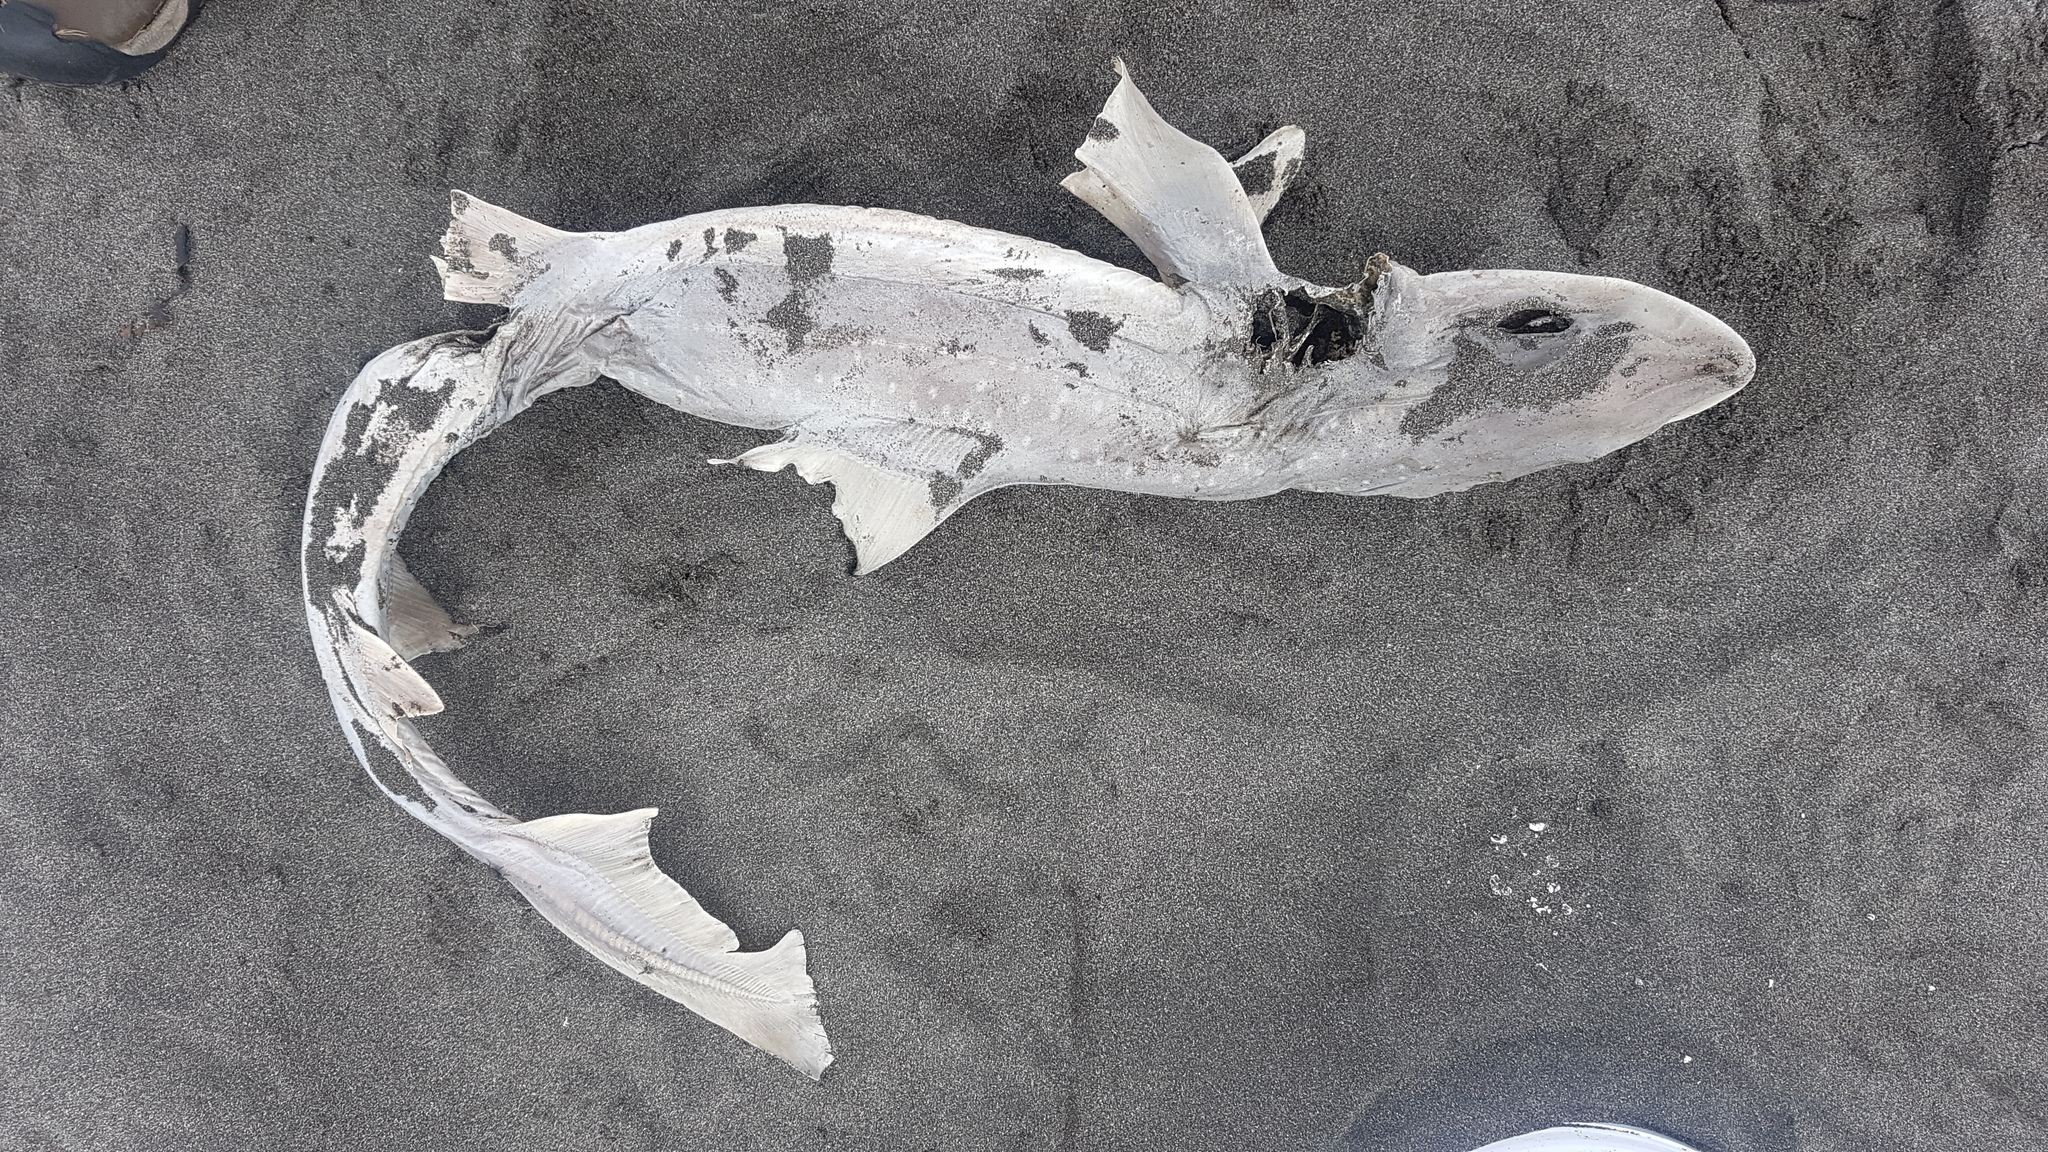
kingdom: Animalia
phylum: Chordata
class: Elasmobranchii
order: Carcharhiniformes
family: Triakidae
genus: Mustelus
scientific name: Mustelus lenticulatus
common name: Gummy shark
